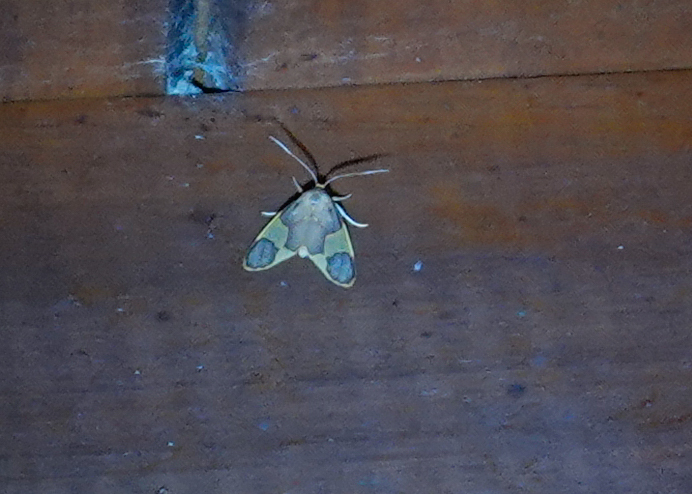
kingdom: Animalia
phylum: Arthropoda
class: Insecta
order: Lepidoptera
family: Erebidae
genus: Trichromia
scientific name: Trichromia
